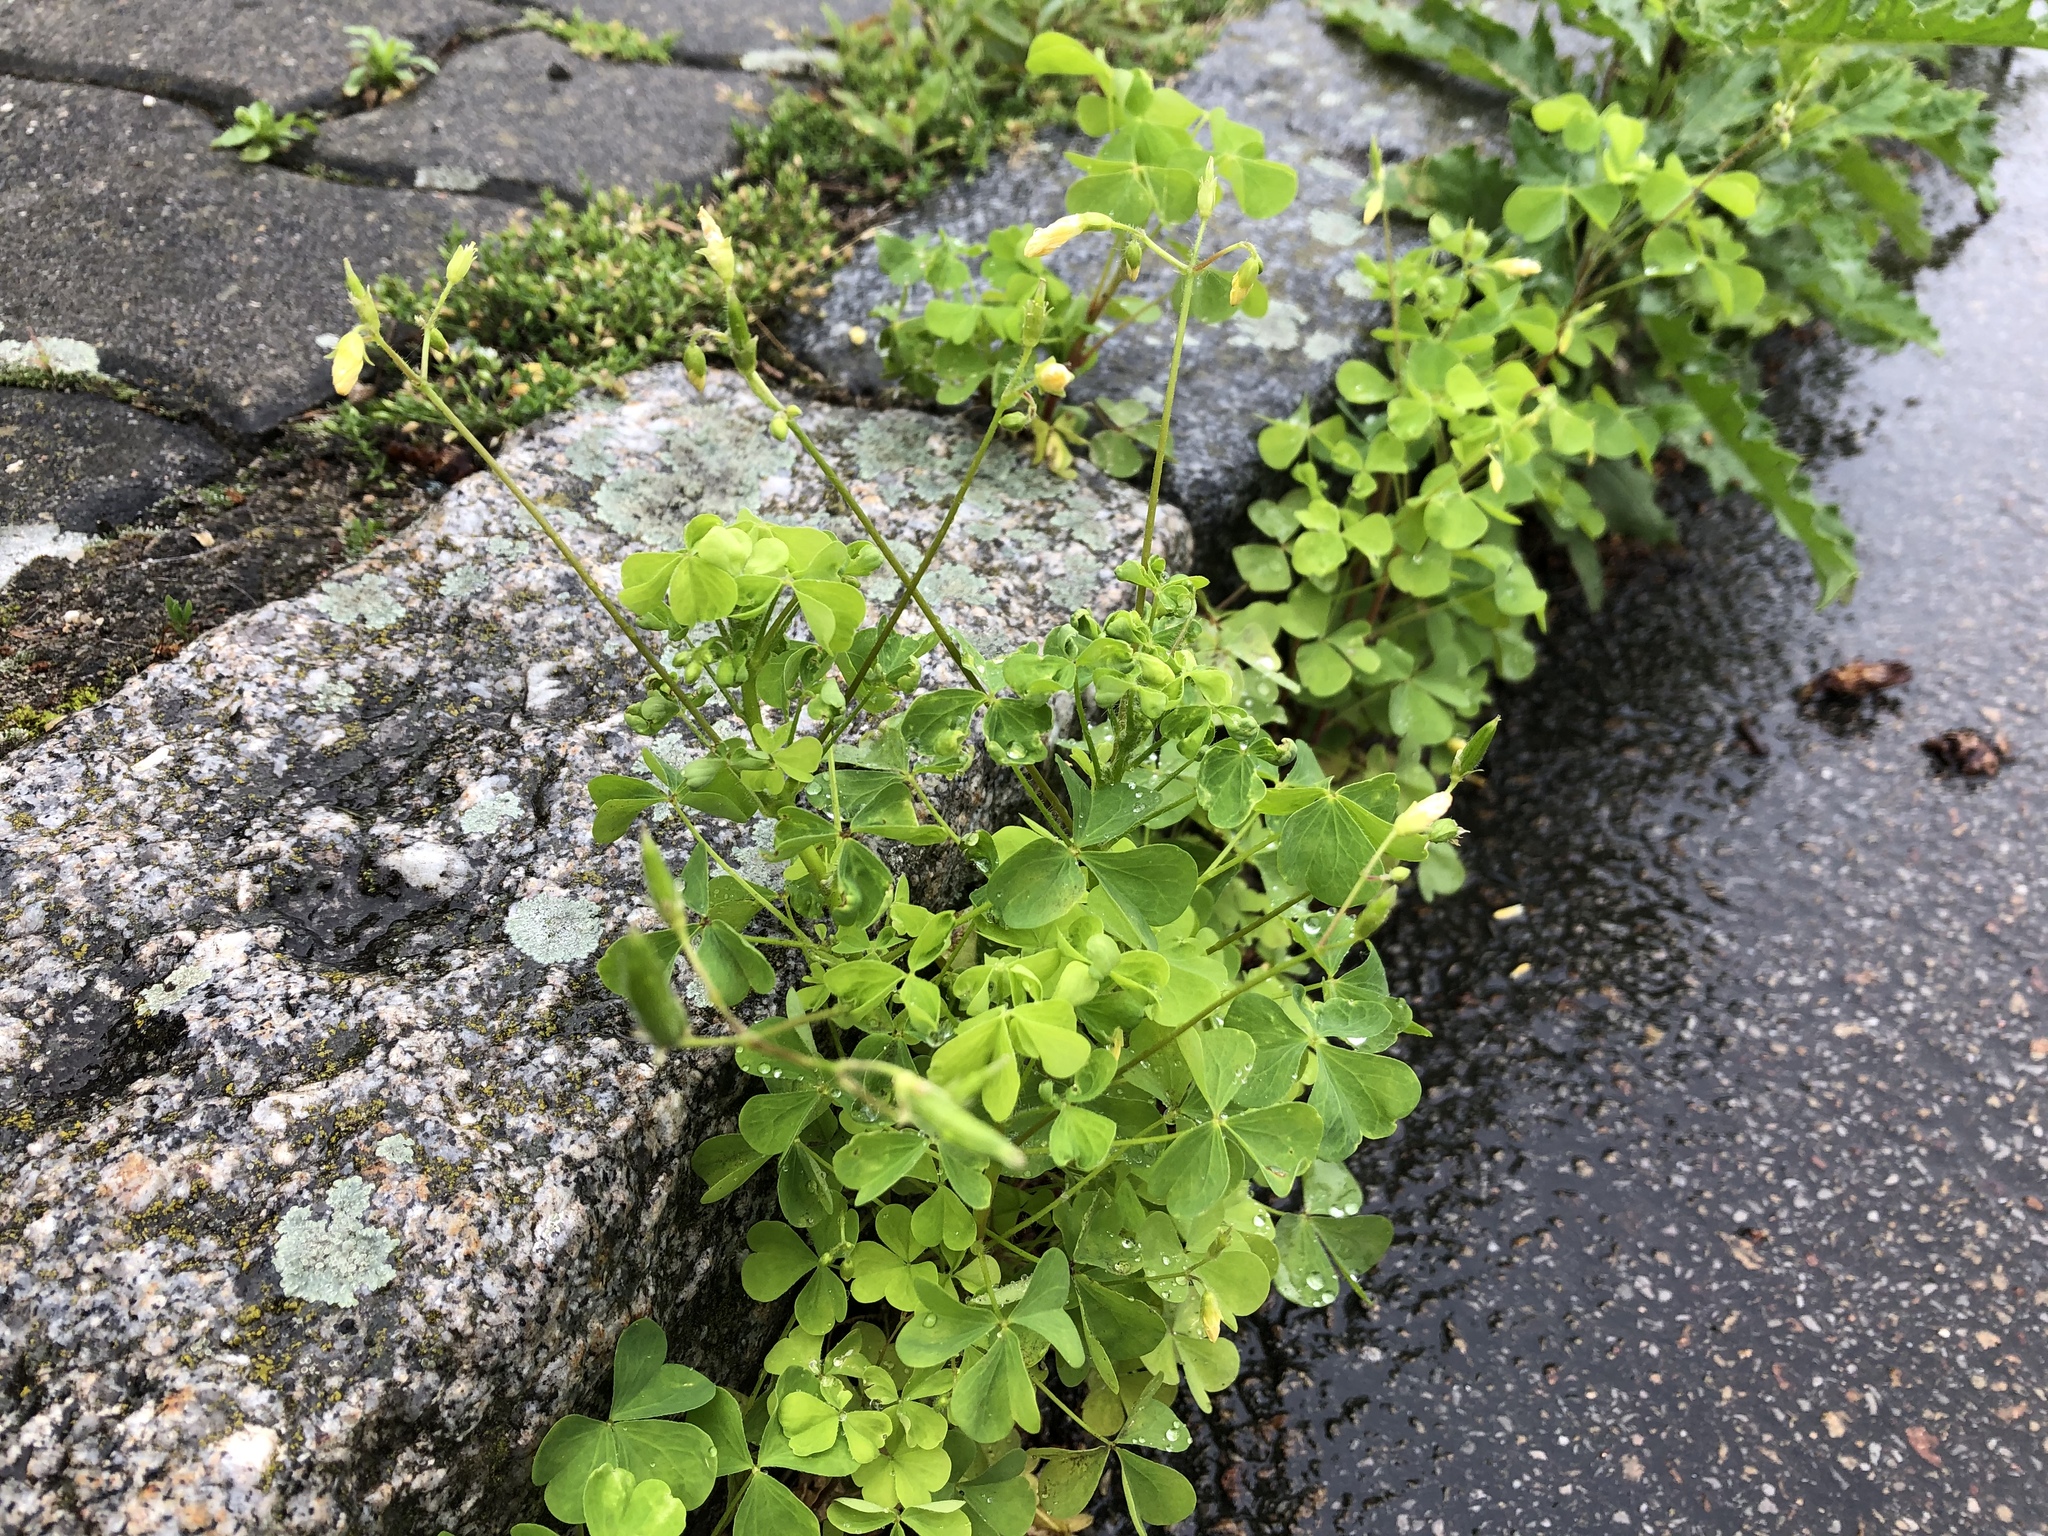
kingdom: Plantae
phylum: Tracheophyta
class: Magnoliopsida
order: Oxalidales
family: Oxalidaceae
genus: Oxalis
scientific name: Oxalis stricta
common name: Upright yellow-sorrel
